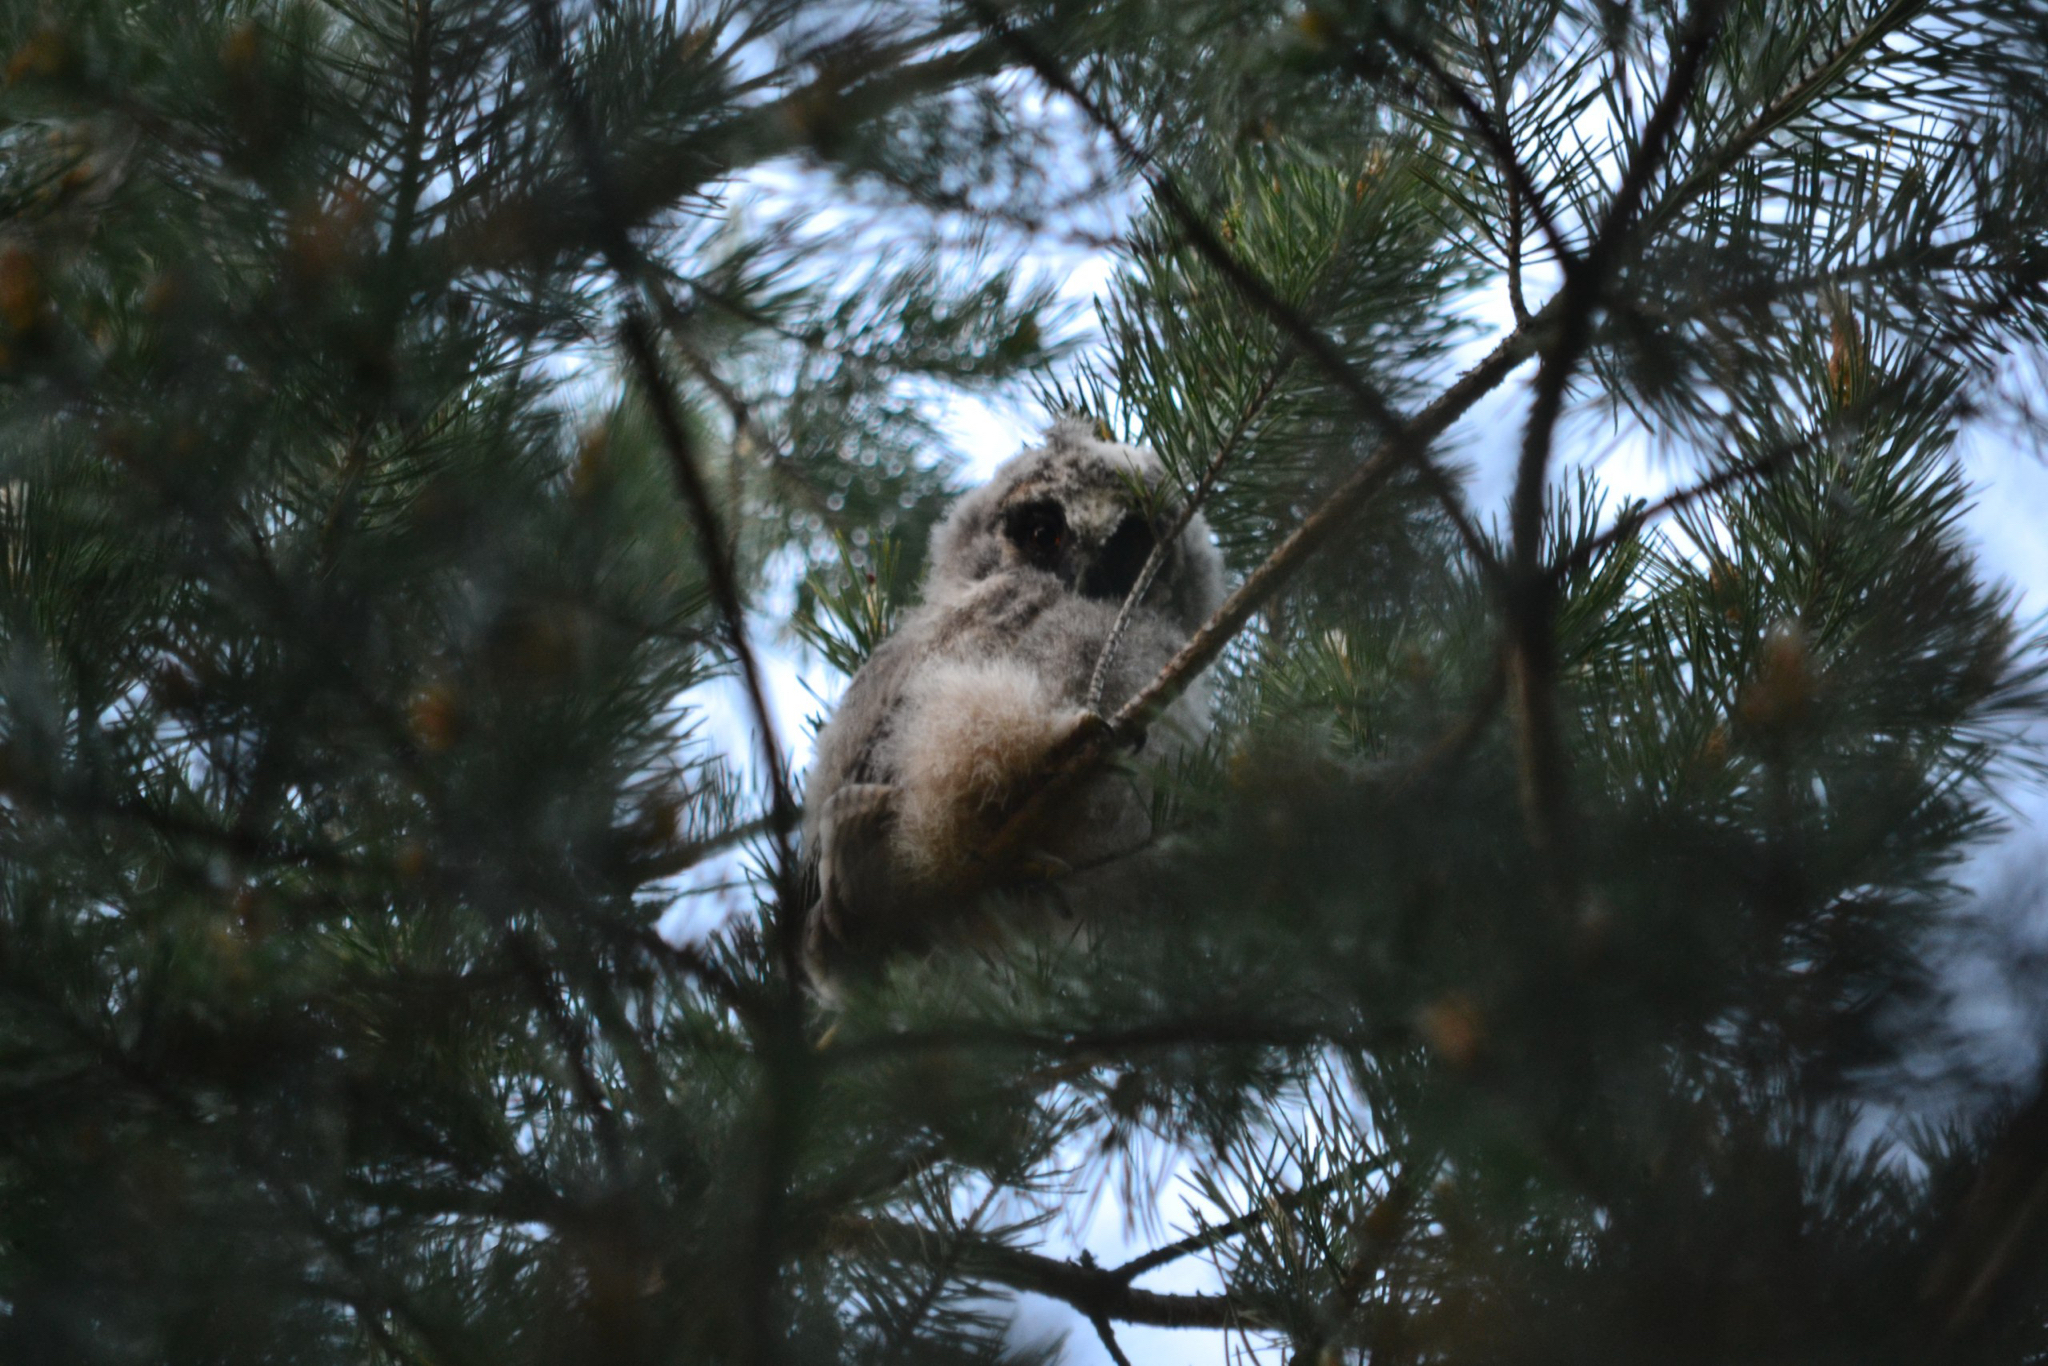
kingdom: Animalia
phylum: Chordata
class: Aves
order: Strigiformes
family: Strigidae
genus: Asio
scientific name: Asio otus
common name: Long-eared owl
